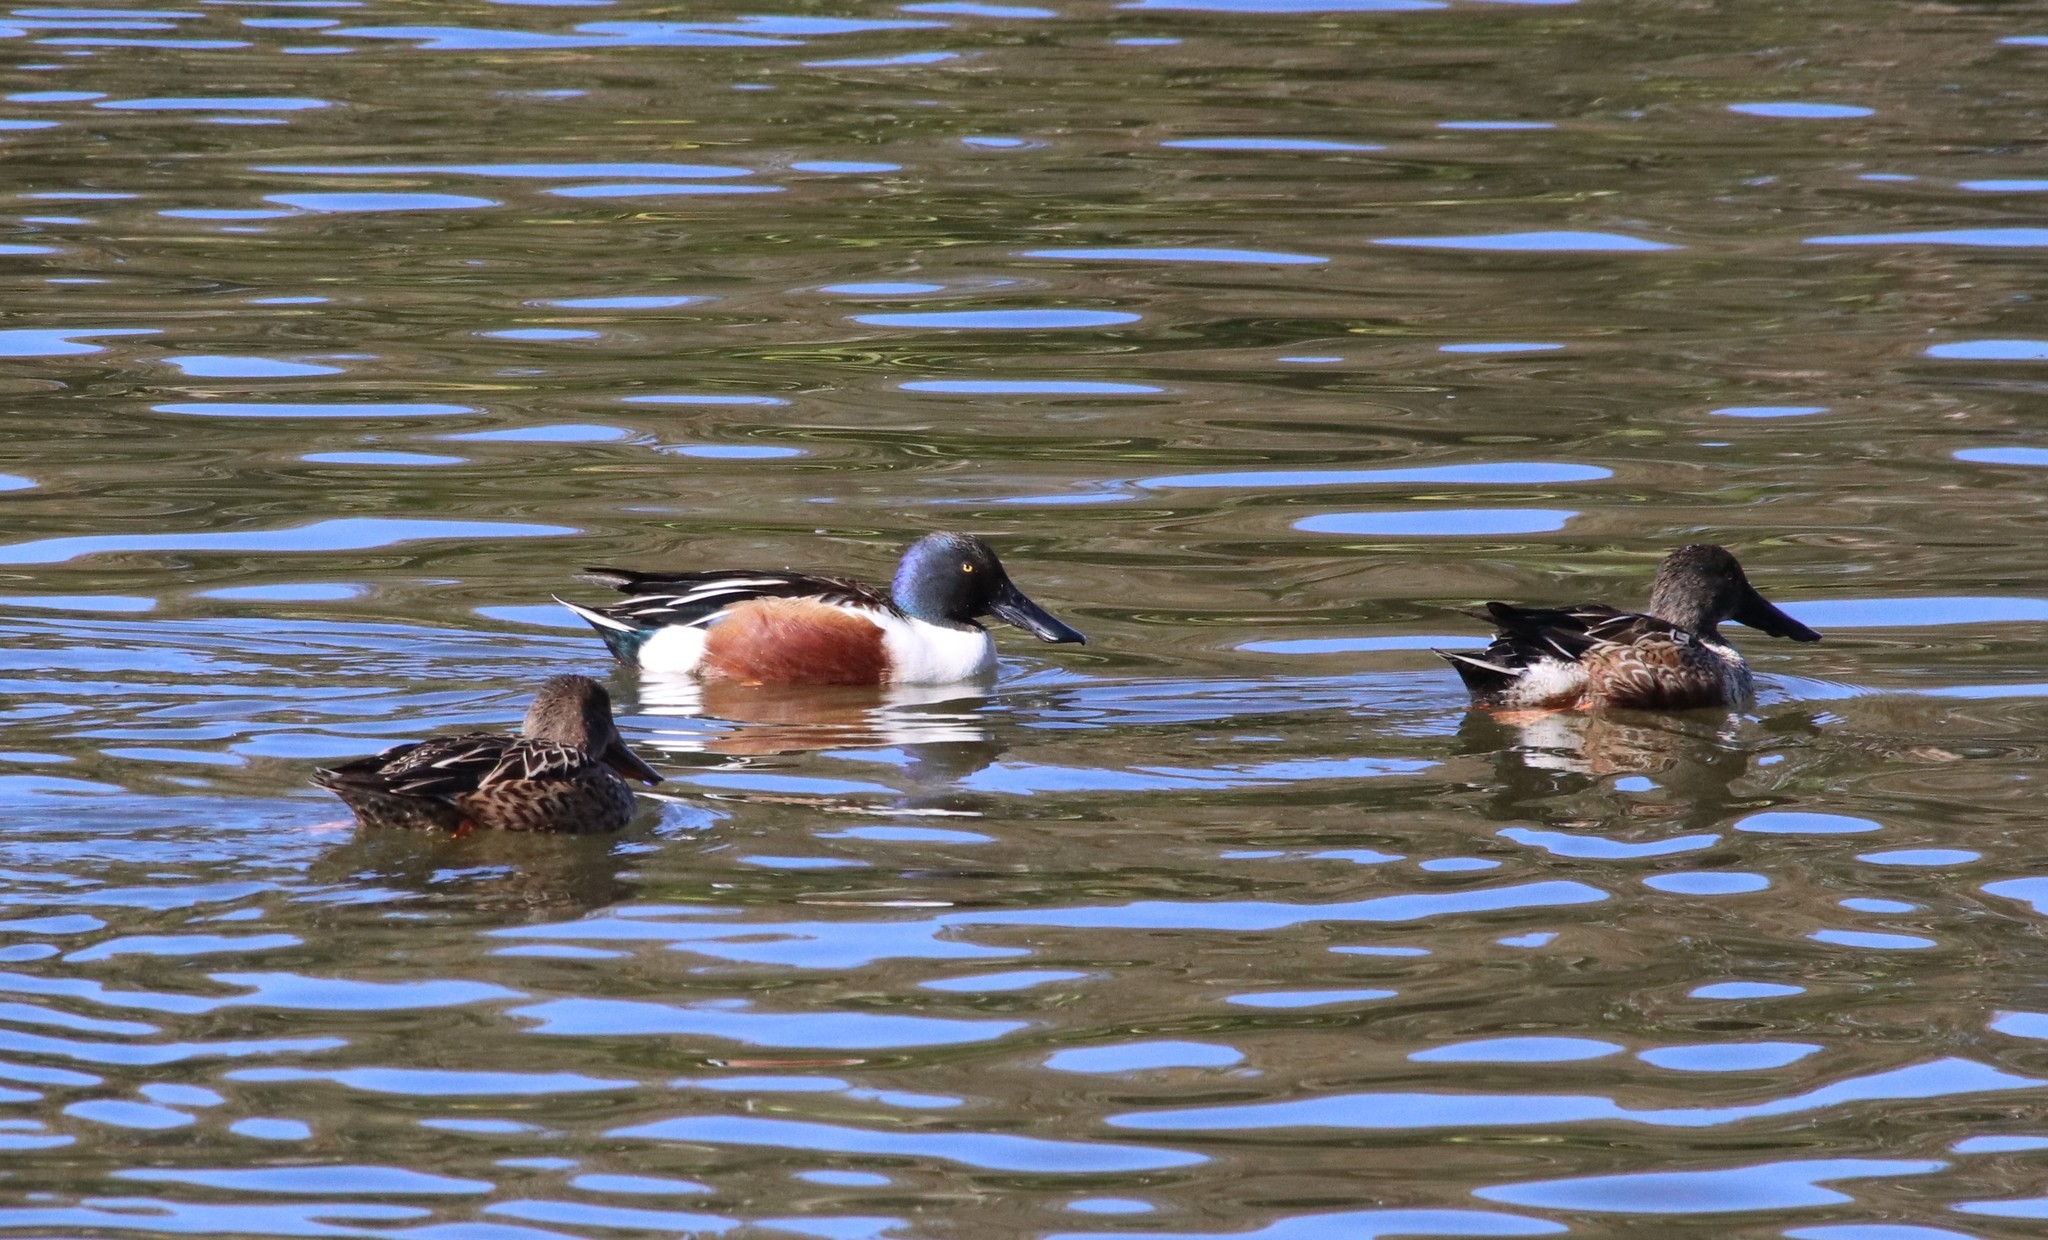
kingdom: Animalia
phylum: Chordata
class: Aves
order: Anseriformes
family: Anatidae
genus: Spatula
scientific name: Spatula clypeata
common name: Northern shoveler
